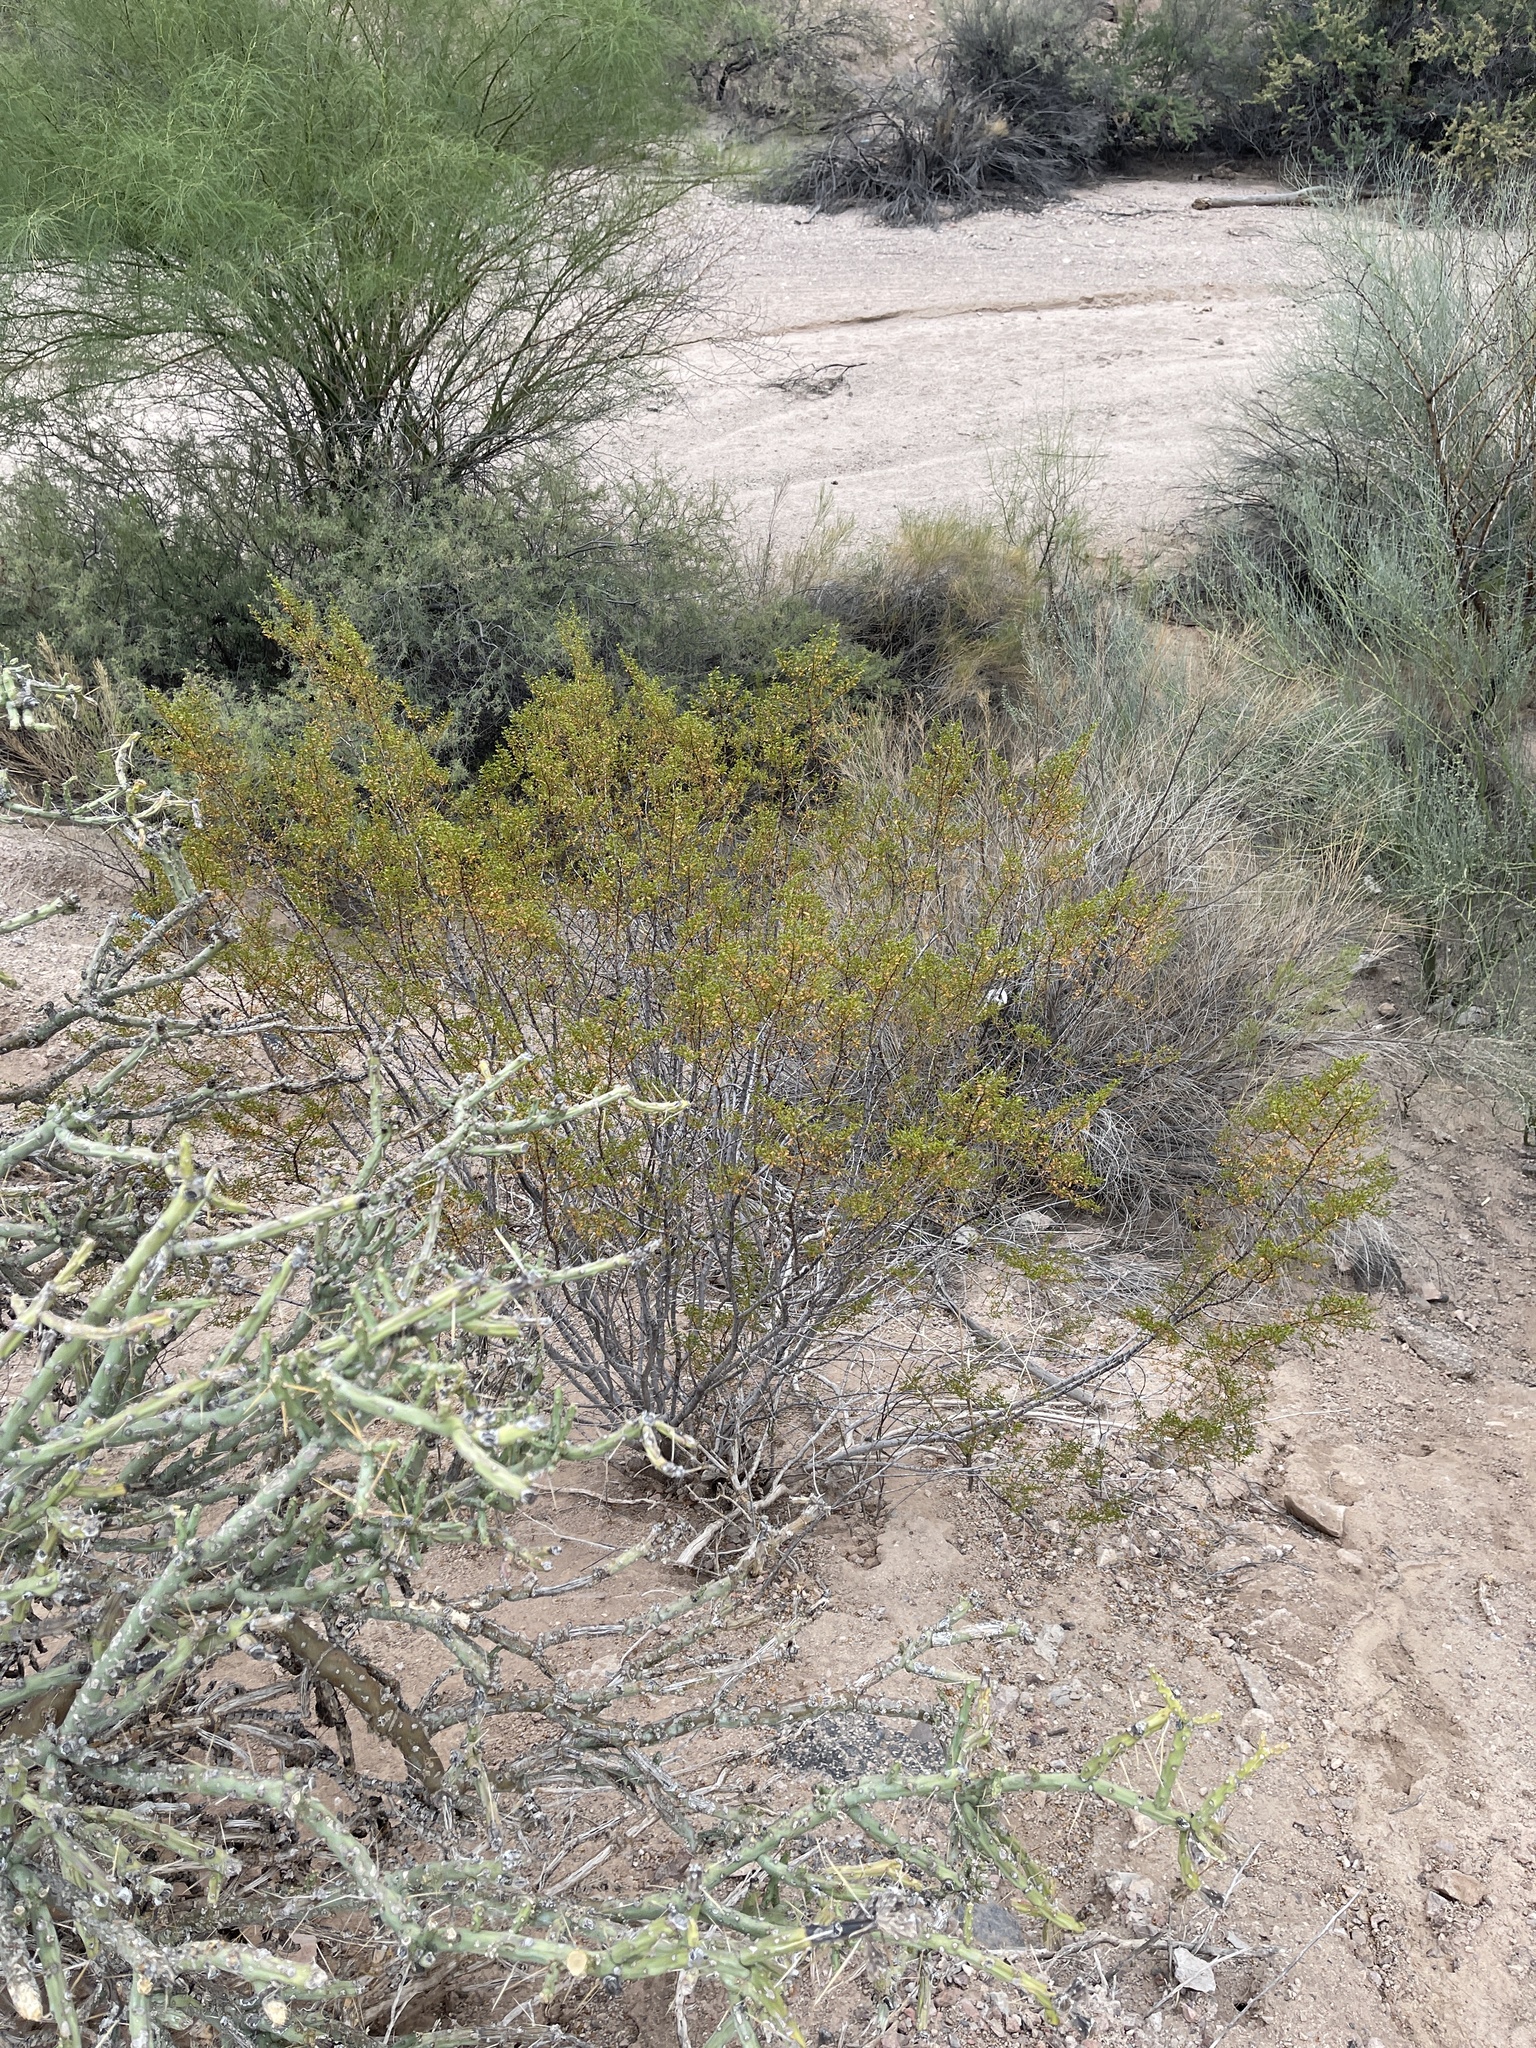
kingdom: Plantae
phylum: Tracheophyta
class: Magnoliopsida
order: Zygophyllales
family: Zygophyllaceae
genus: Larrea
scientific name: Larrea tridentata
